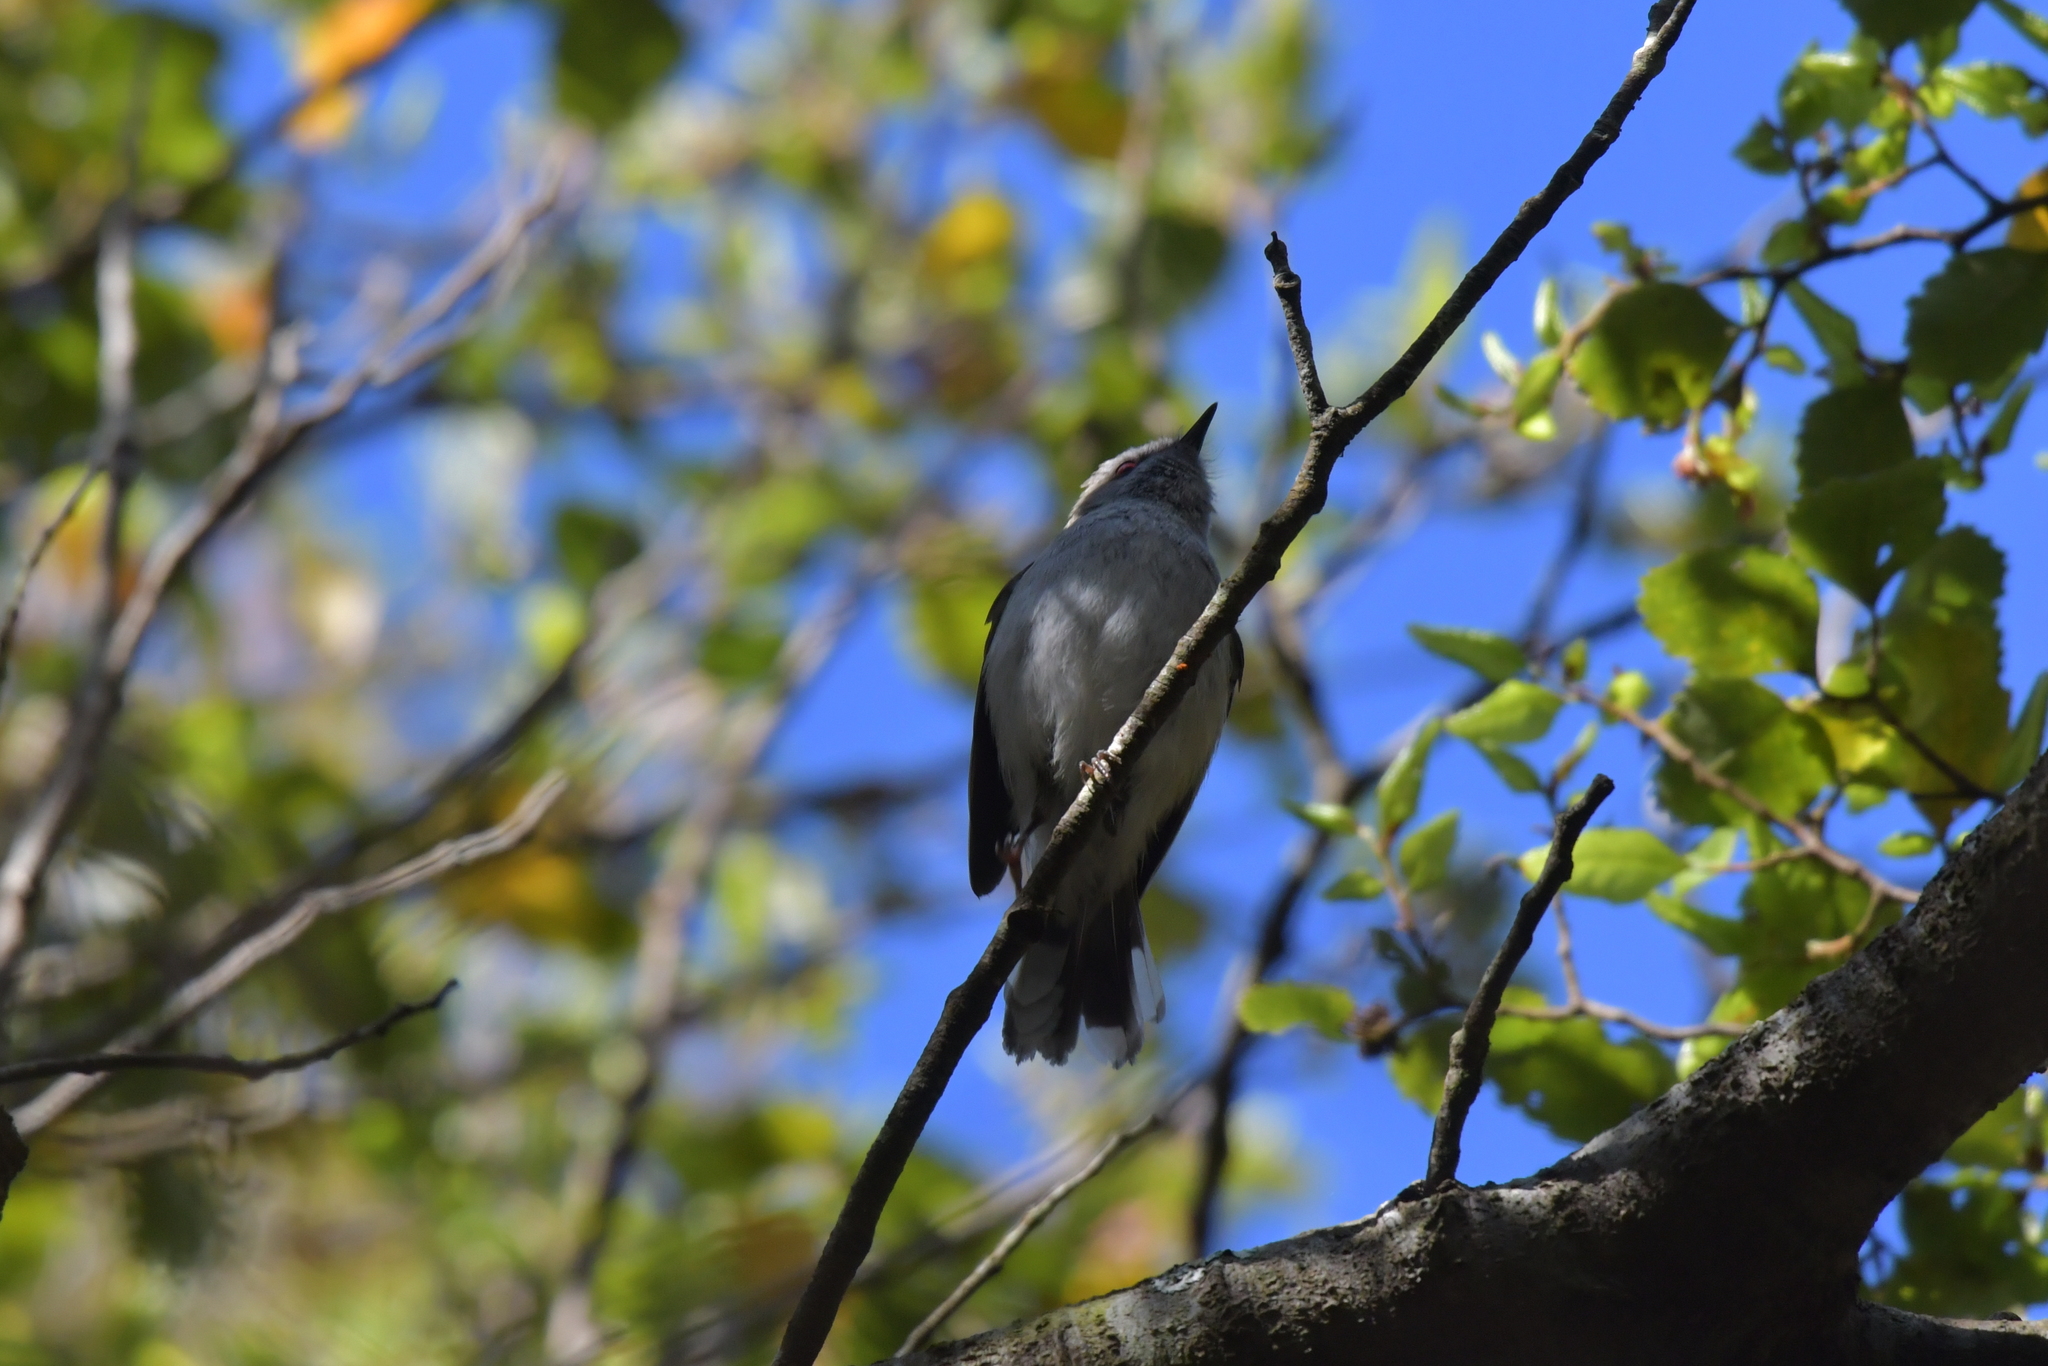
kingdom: Animalia
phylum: Chordata
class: Aves
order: Passeriformes
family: Acanthizidae
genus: Gerygone
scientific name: Gerygone igata
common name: Grey gerygone
